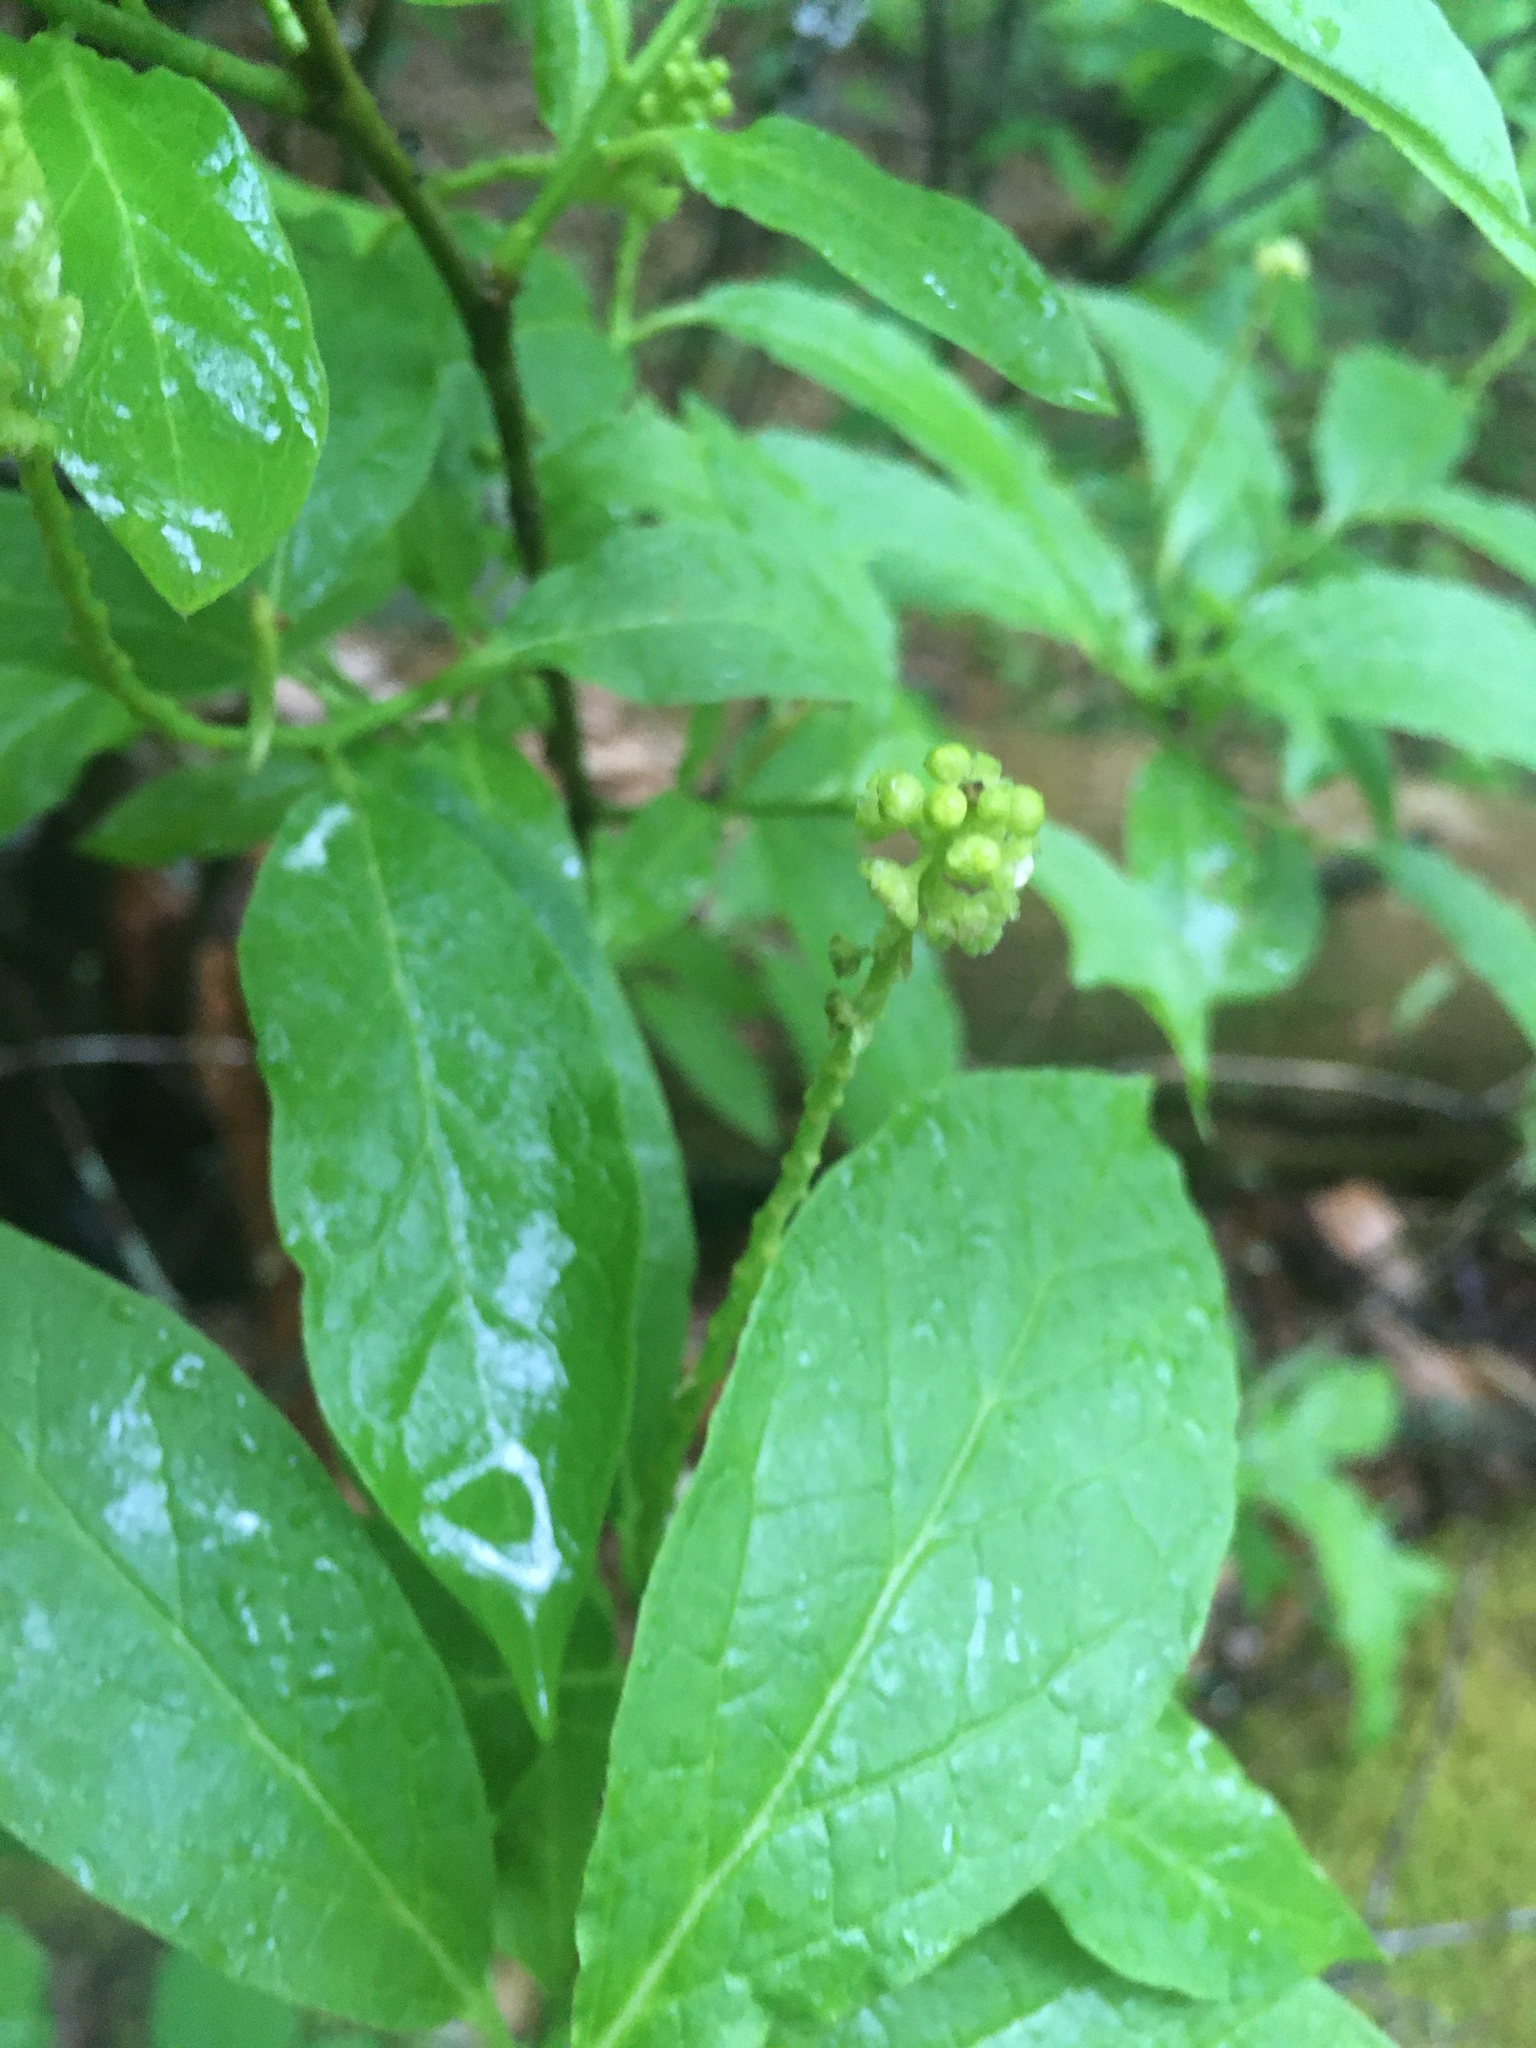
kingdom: Plantae
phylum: Tracheophyta
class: Magnoliopsida
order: Santalales
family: Cervantesiaceae
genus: Pyrularia
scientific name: Pyrularia pubera
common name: Oilnut
